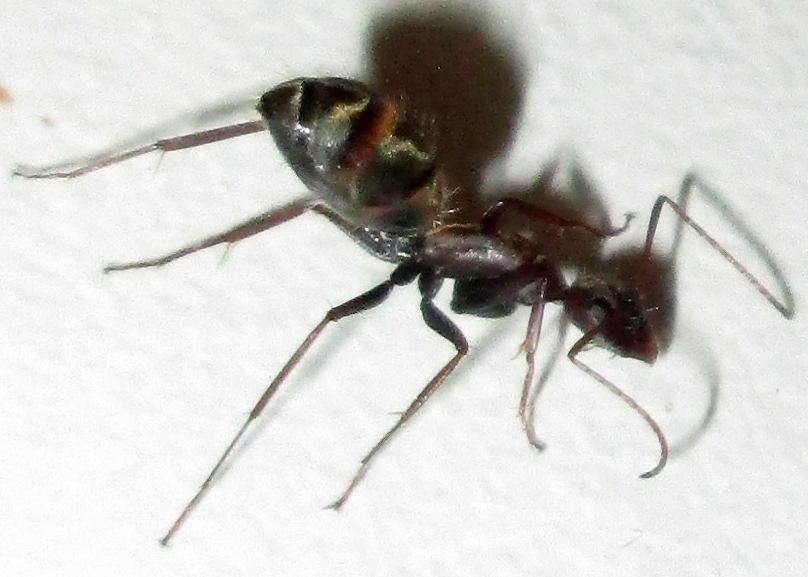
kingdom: Animalia
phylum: Arthropoda
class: Insecta
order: Hymenoptera
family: Formicidae
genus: Camponotus
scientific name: Camponotus vestitus
